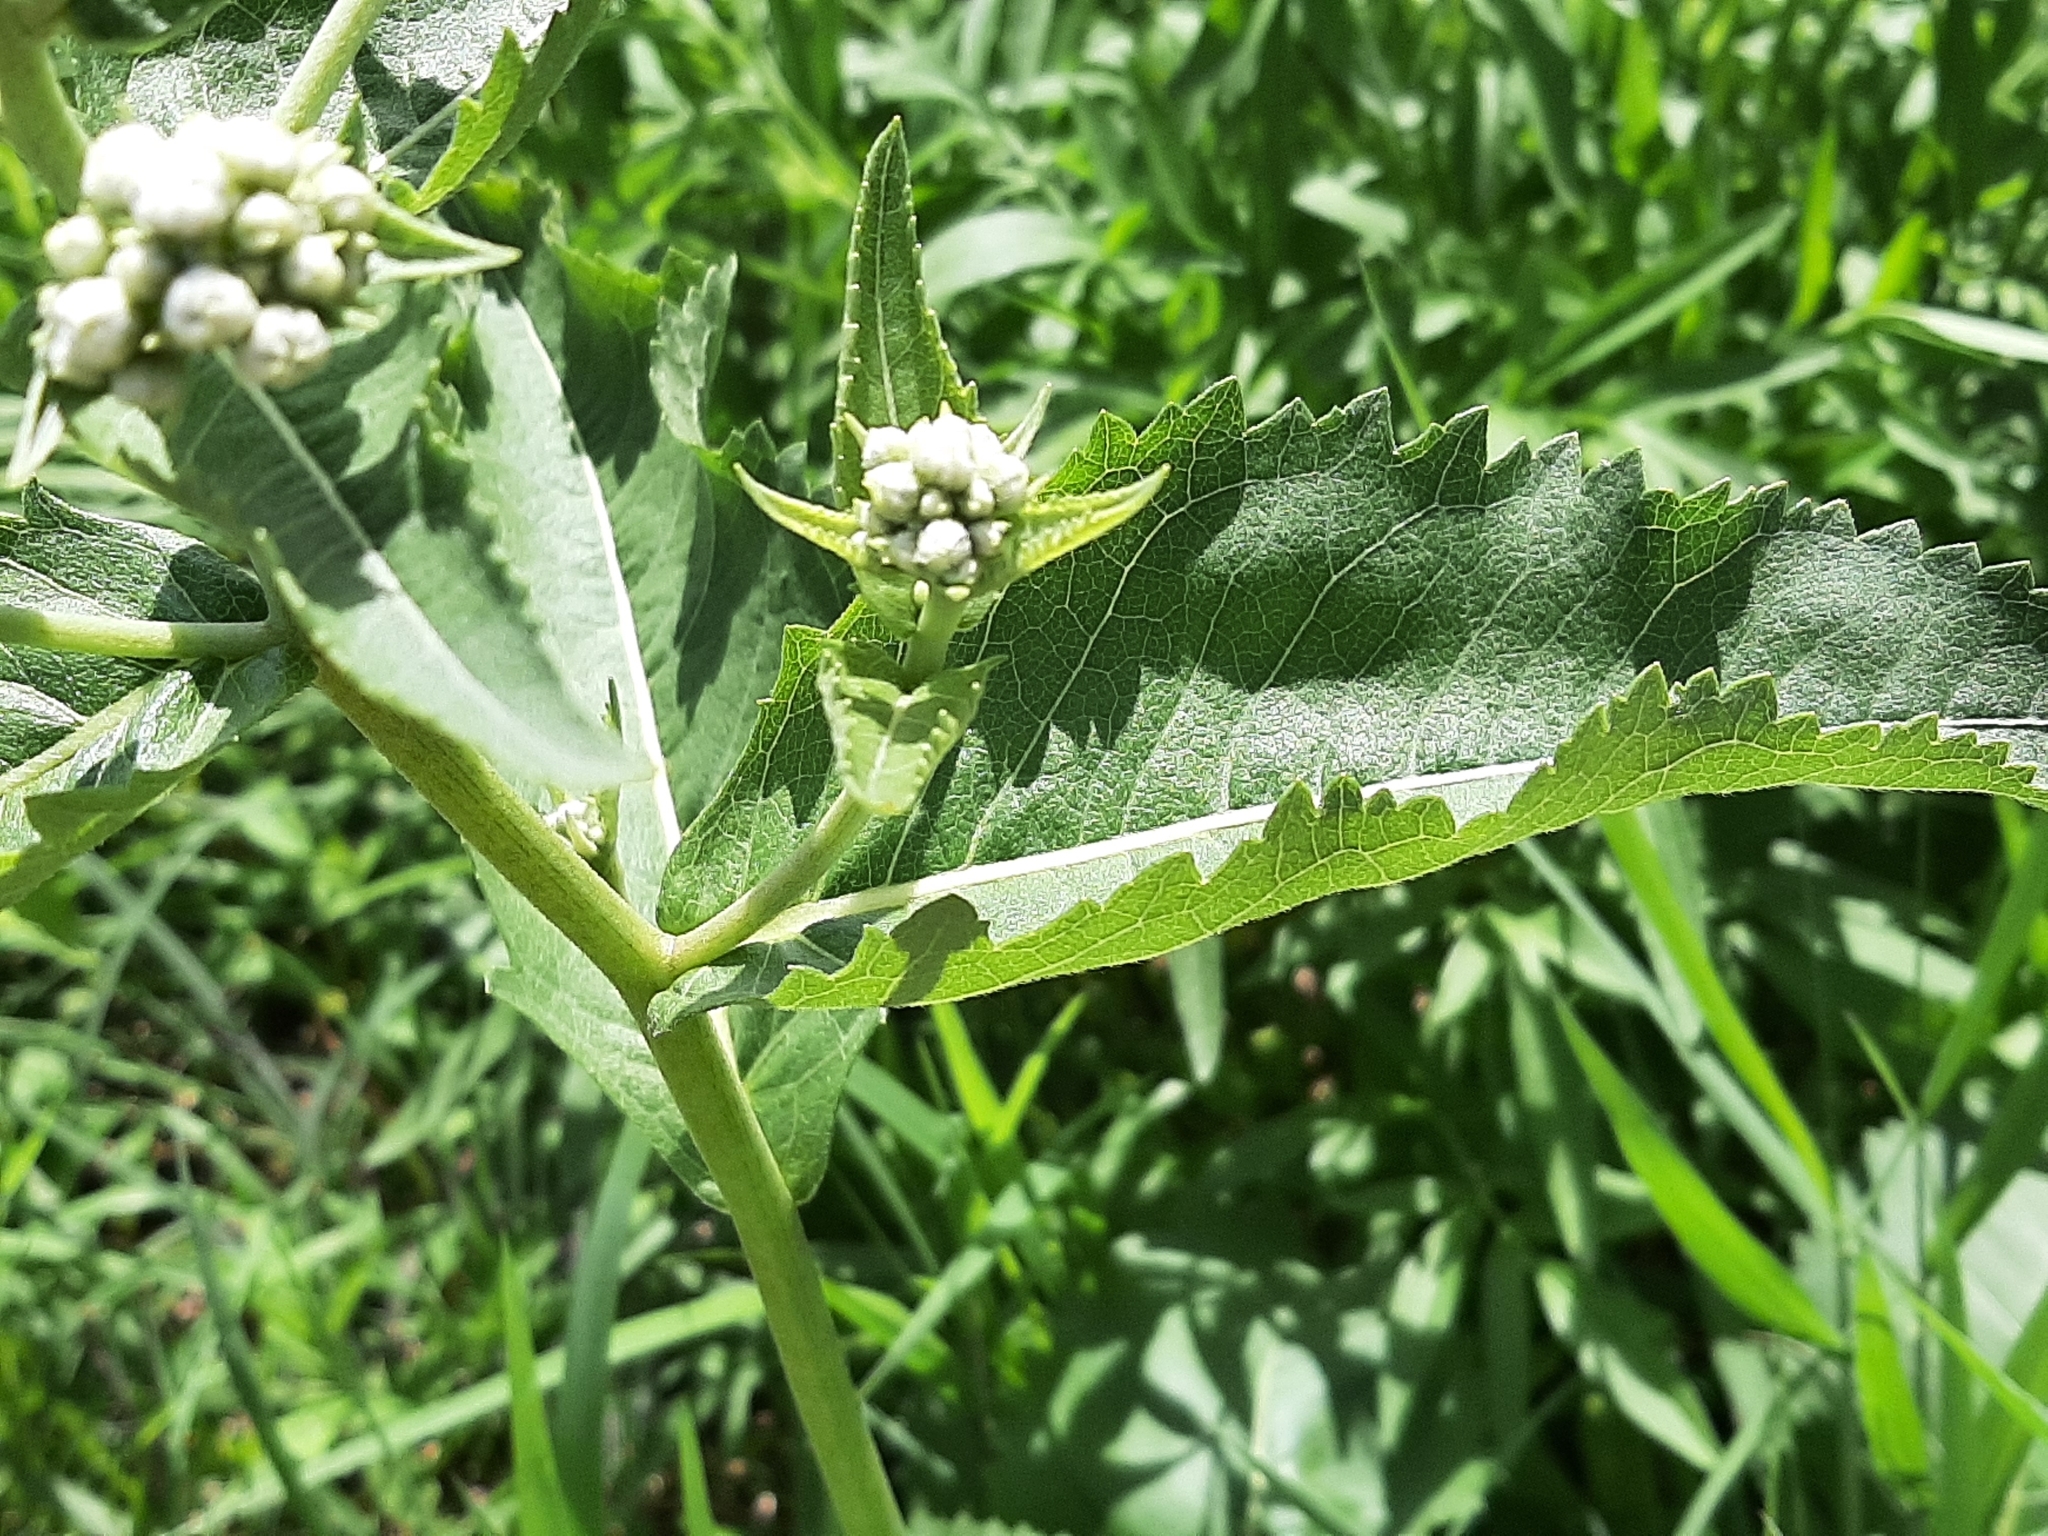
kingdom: Plantae
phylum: Tracheophyta
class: Magnoliopsida
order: Asterales
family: Asteraceae
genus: Parthenium
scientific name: Parthenium integrifolium
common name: American feverfew
